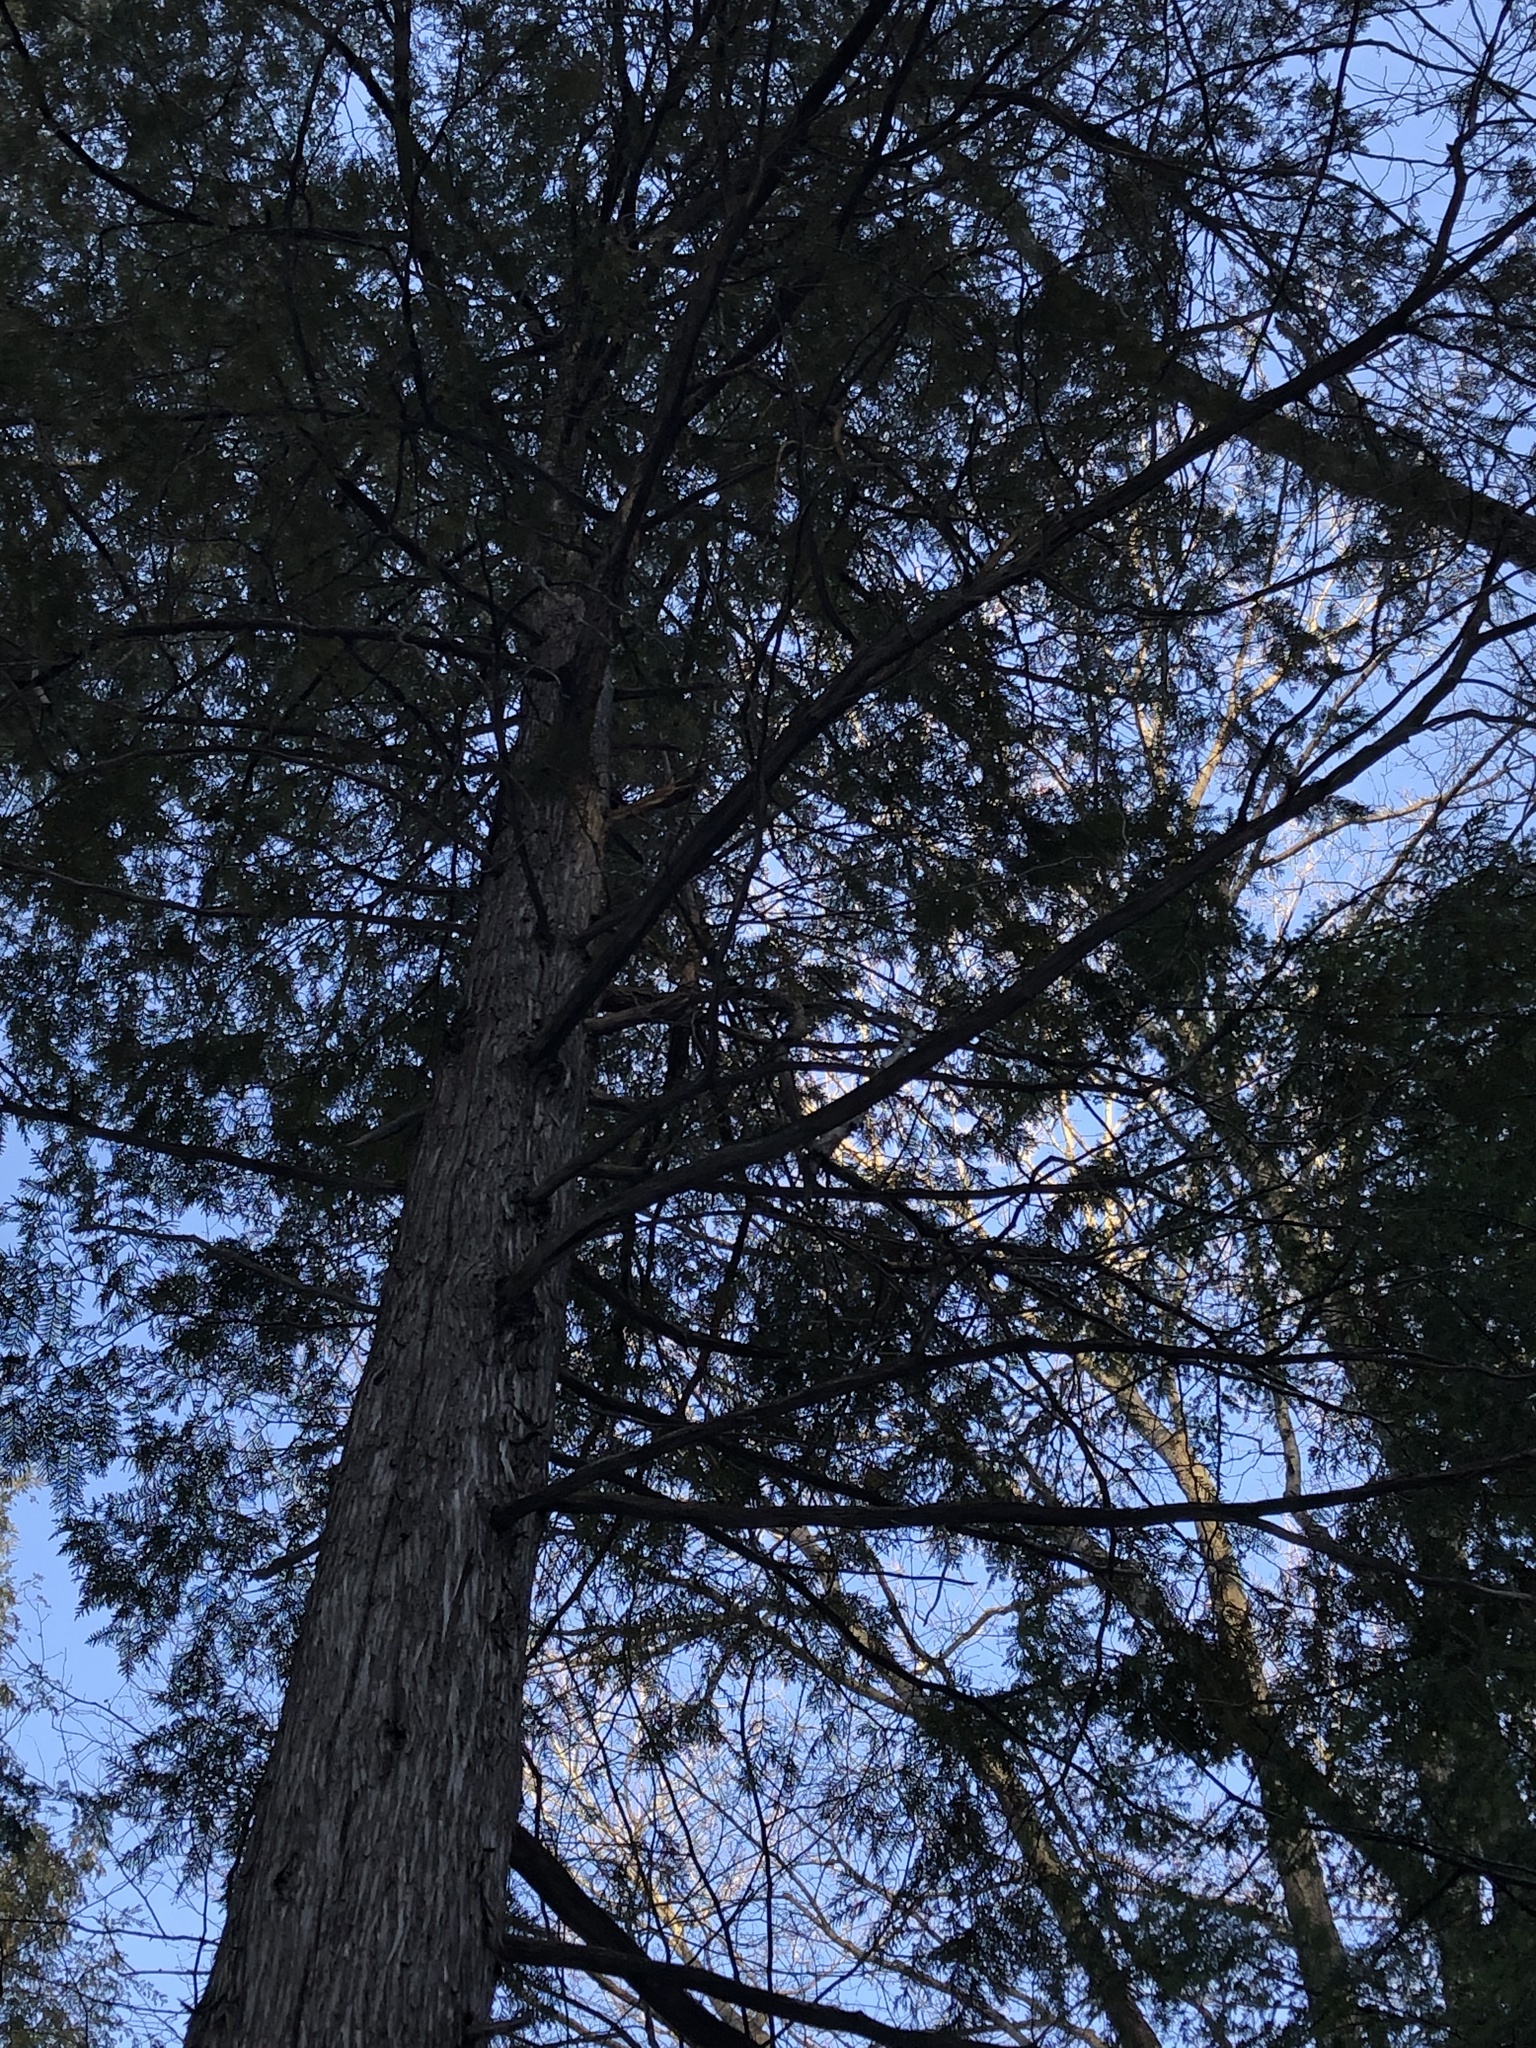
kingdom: Plantae
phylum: Tracheophyta
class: Pinopsida
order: Pinales
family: Cupressaceae
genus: Thuja
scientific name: Thuja occidentalis
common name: Northern white-cedar
